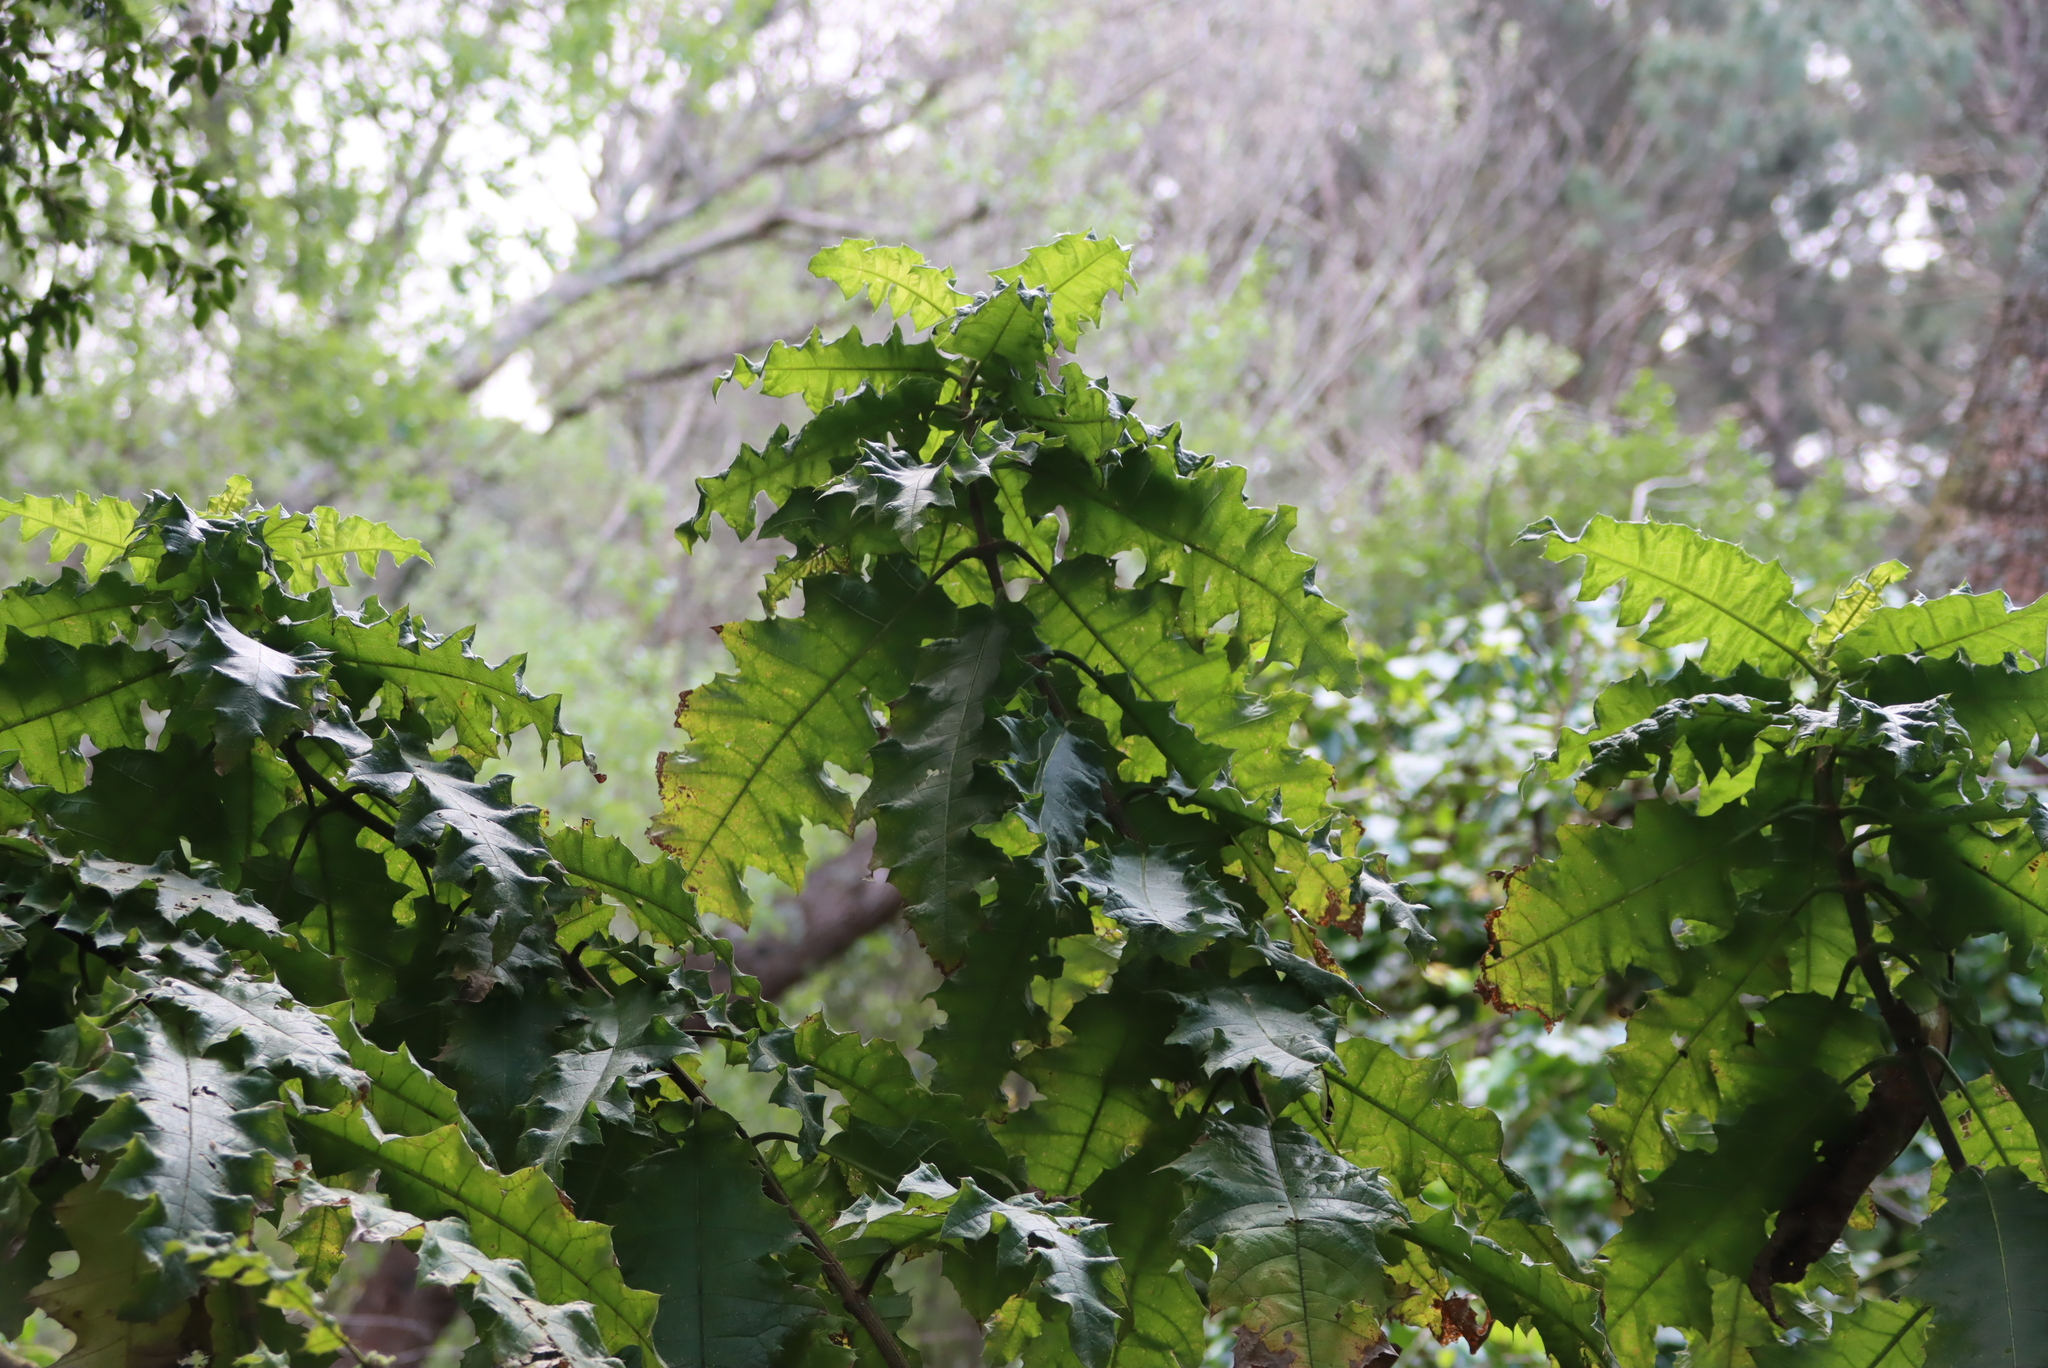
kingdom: Plantae
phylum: Tracheophyta
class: Magnoliopsida
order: Lamiales
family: Acanthaceae
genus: Acanthus
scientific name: Acanthus polystachyus
